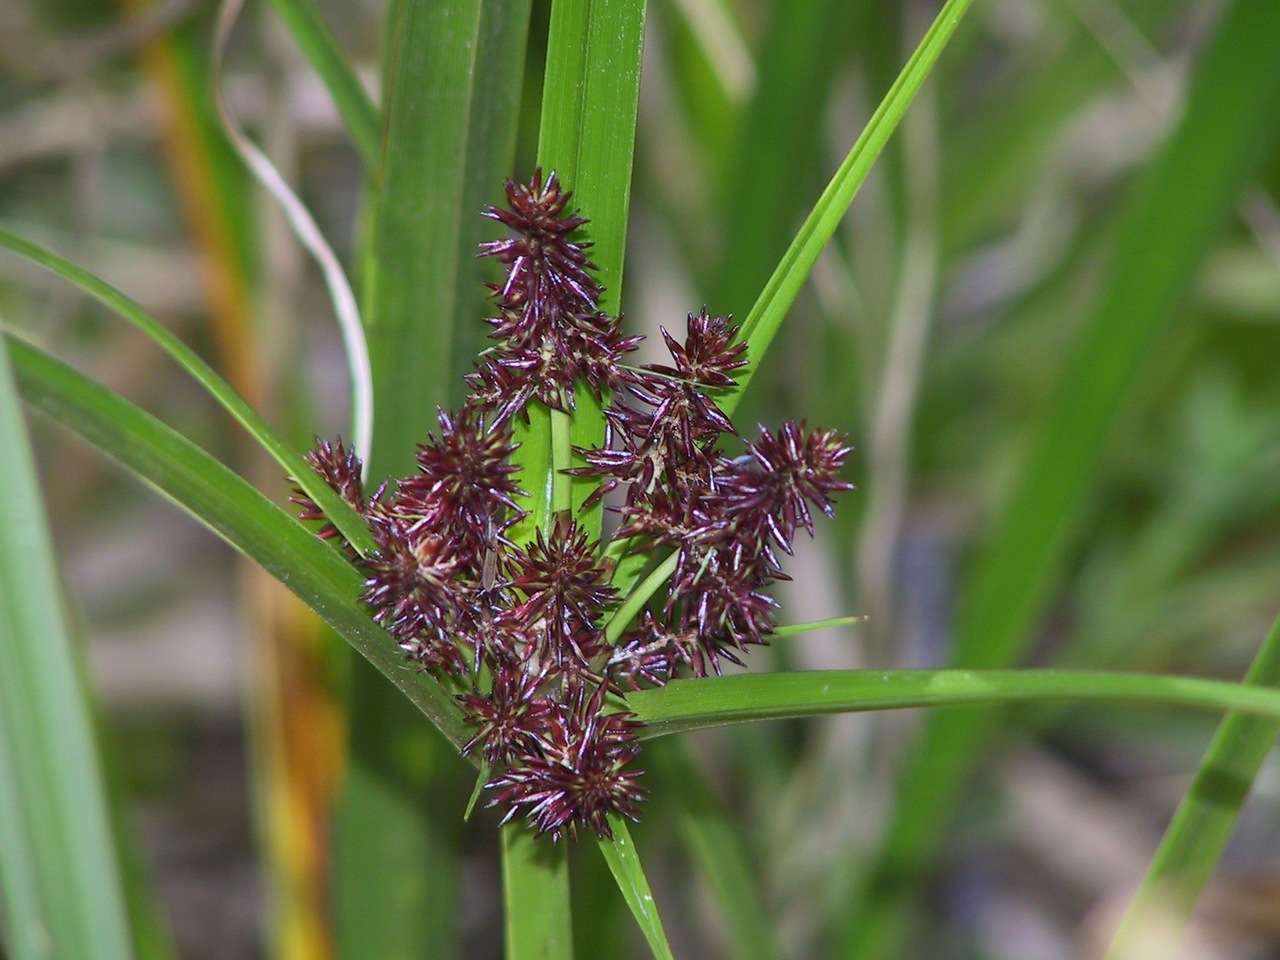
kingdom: Plantae
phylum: Tracheophyta
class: Liliopsida
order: Poales
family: Cyperaceae
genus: Cyperus
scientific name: Cyperus lucidus
